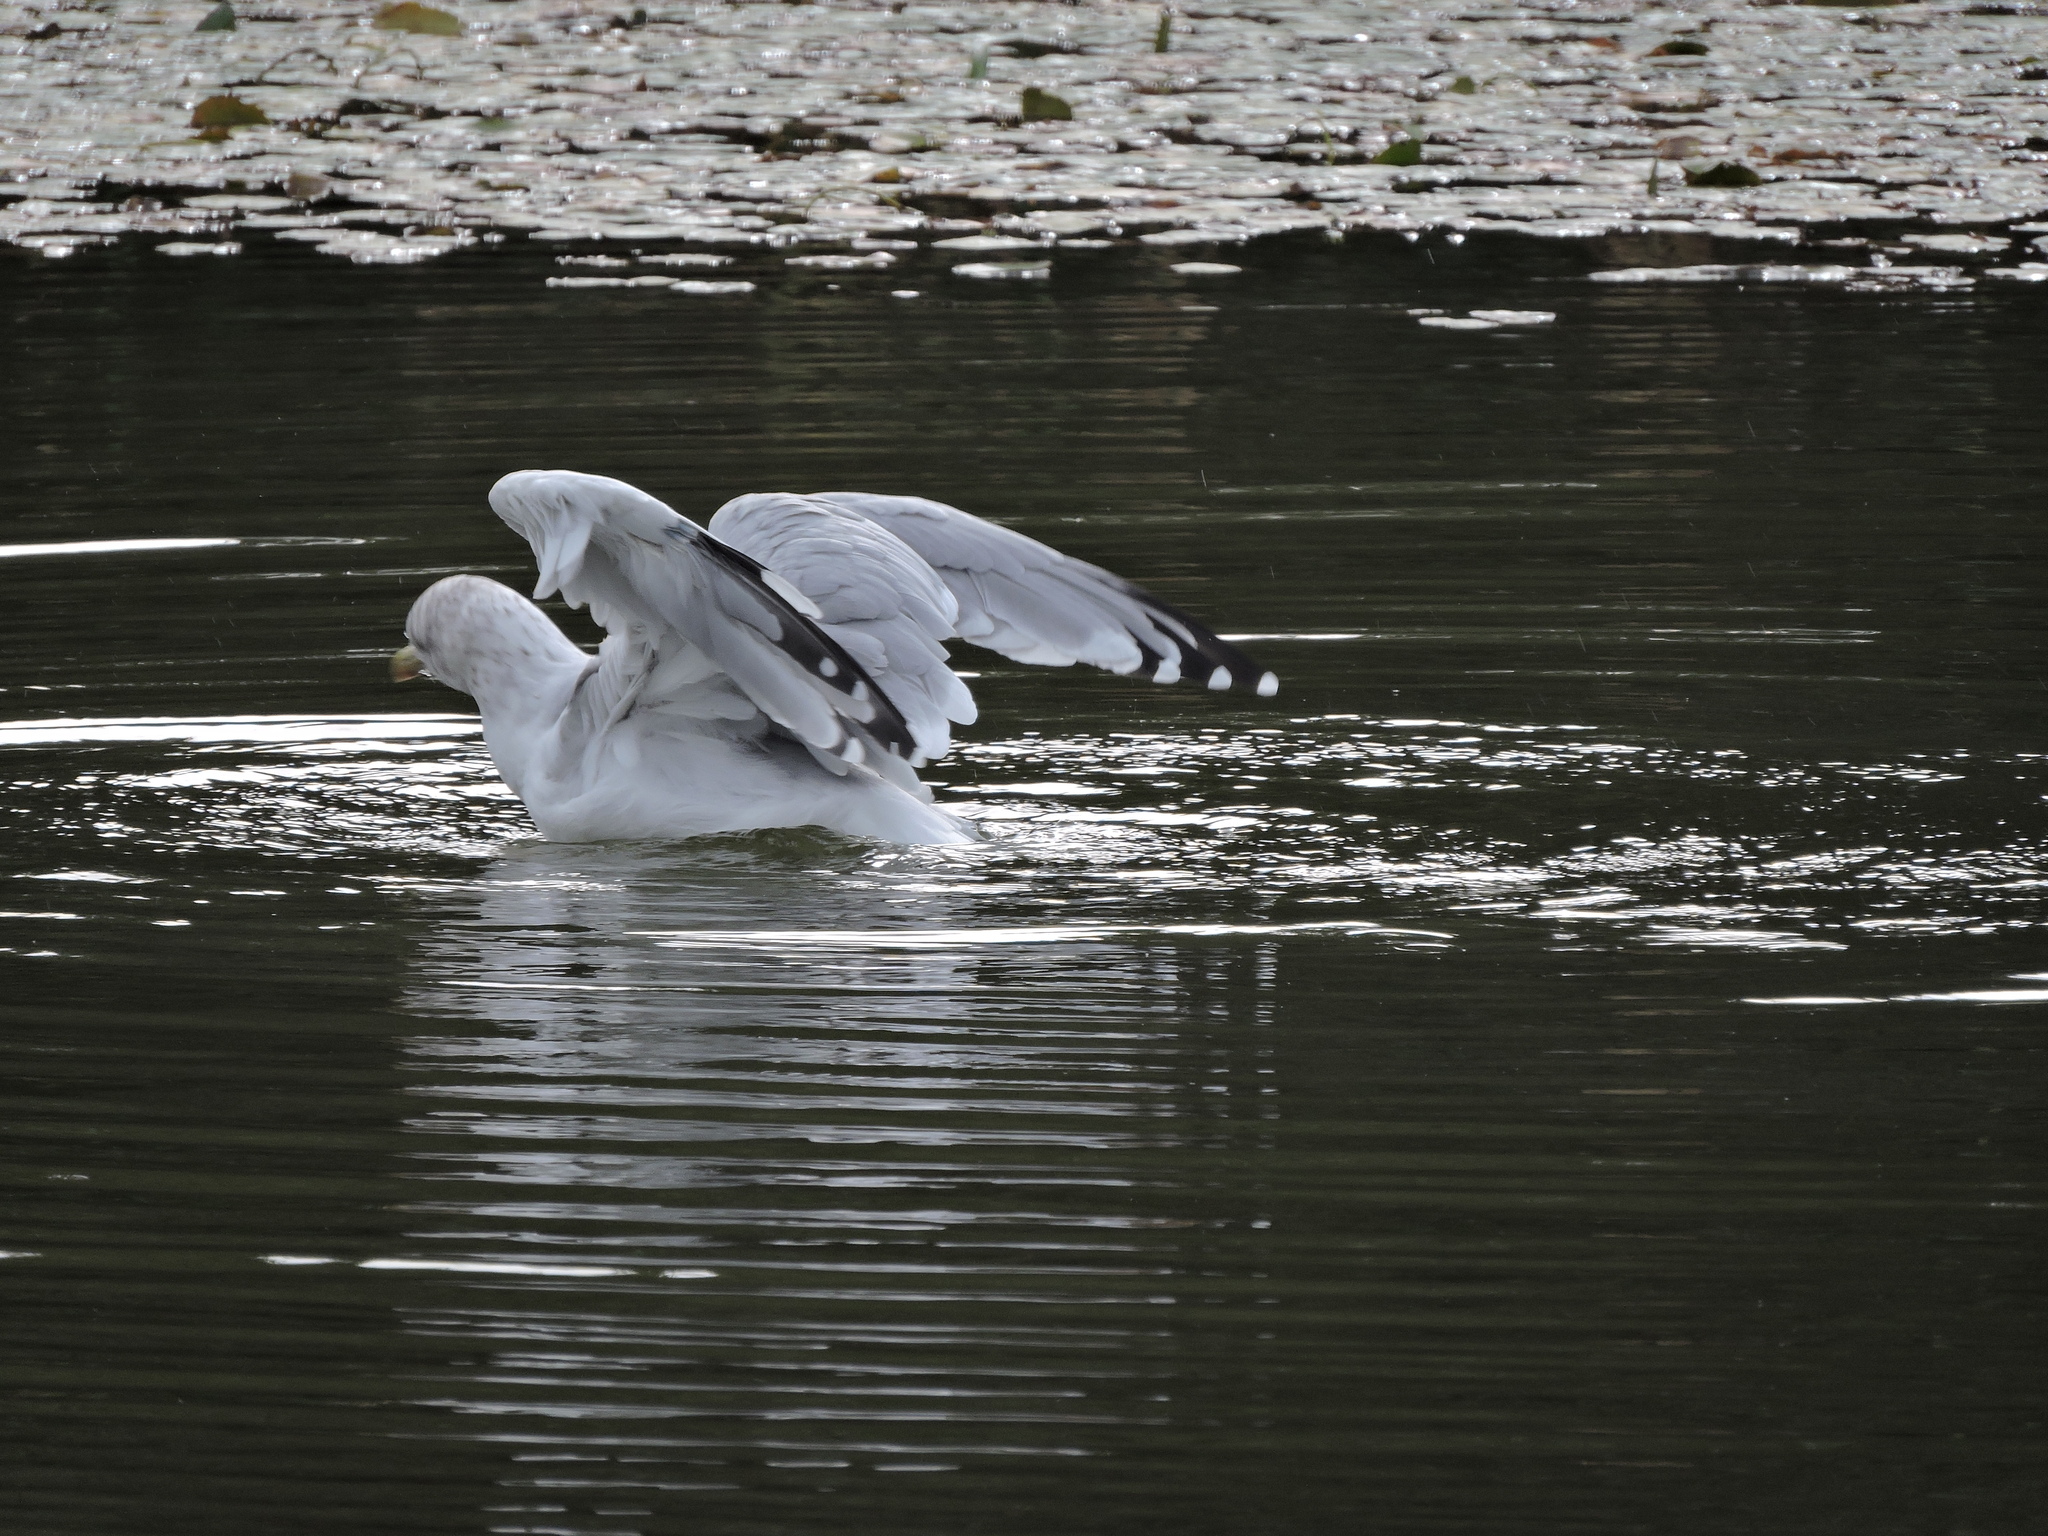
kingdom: Animalia
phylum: Chordata
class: Aves
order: Charadriiformes
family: Laridae
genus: Larus
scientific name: Larus argentatus
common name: Herring gull
